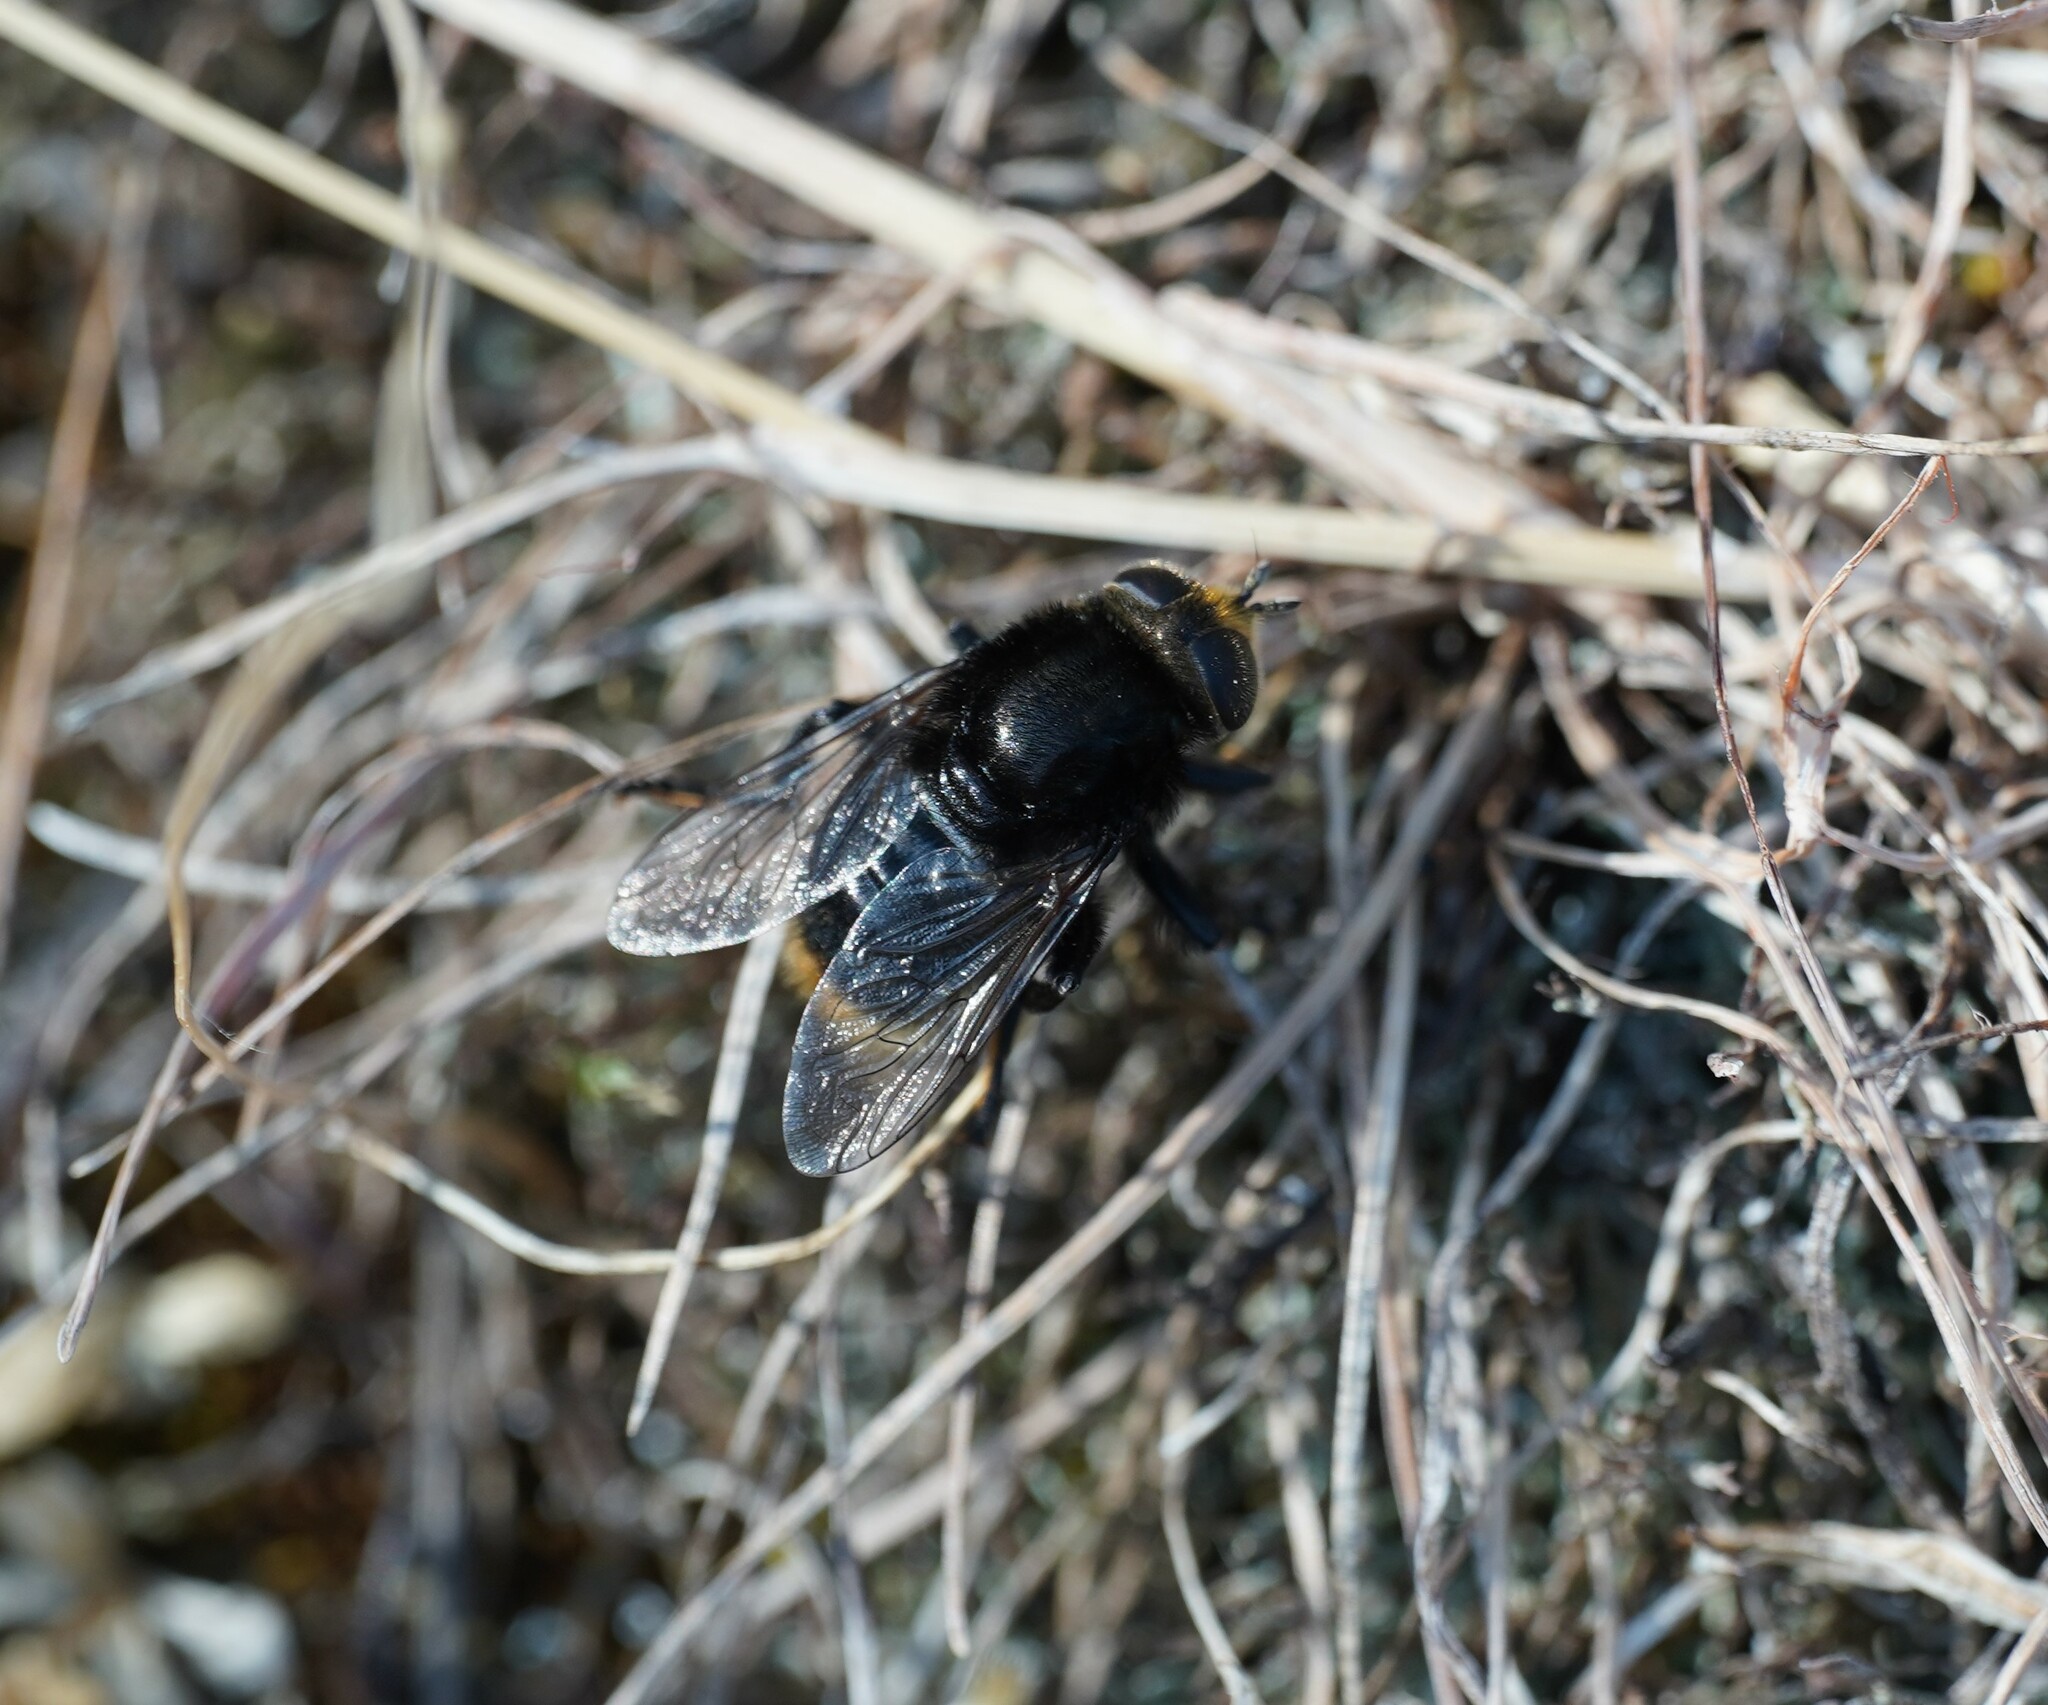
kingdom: Animalia
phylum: Arthropoda
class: Insecta
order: Diptera
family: Syrphidae
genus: Merodon
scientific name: Merodon equestris
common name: Greater bulb-fly
